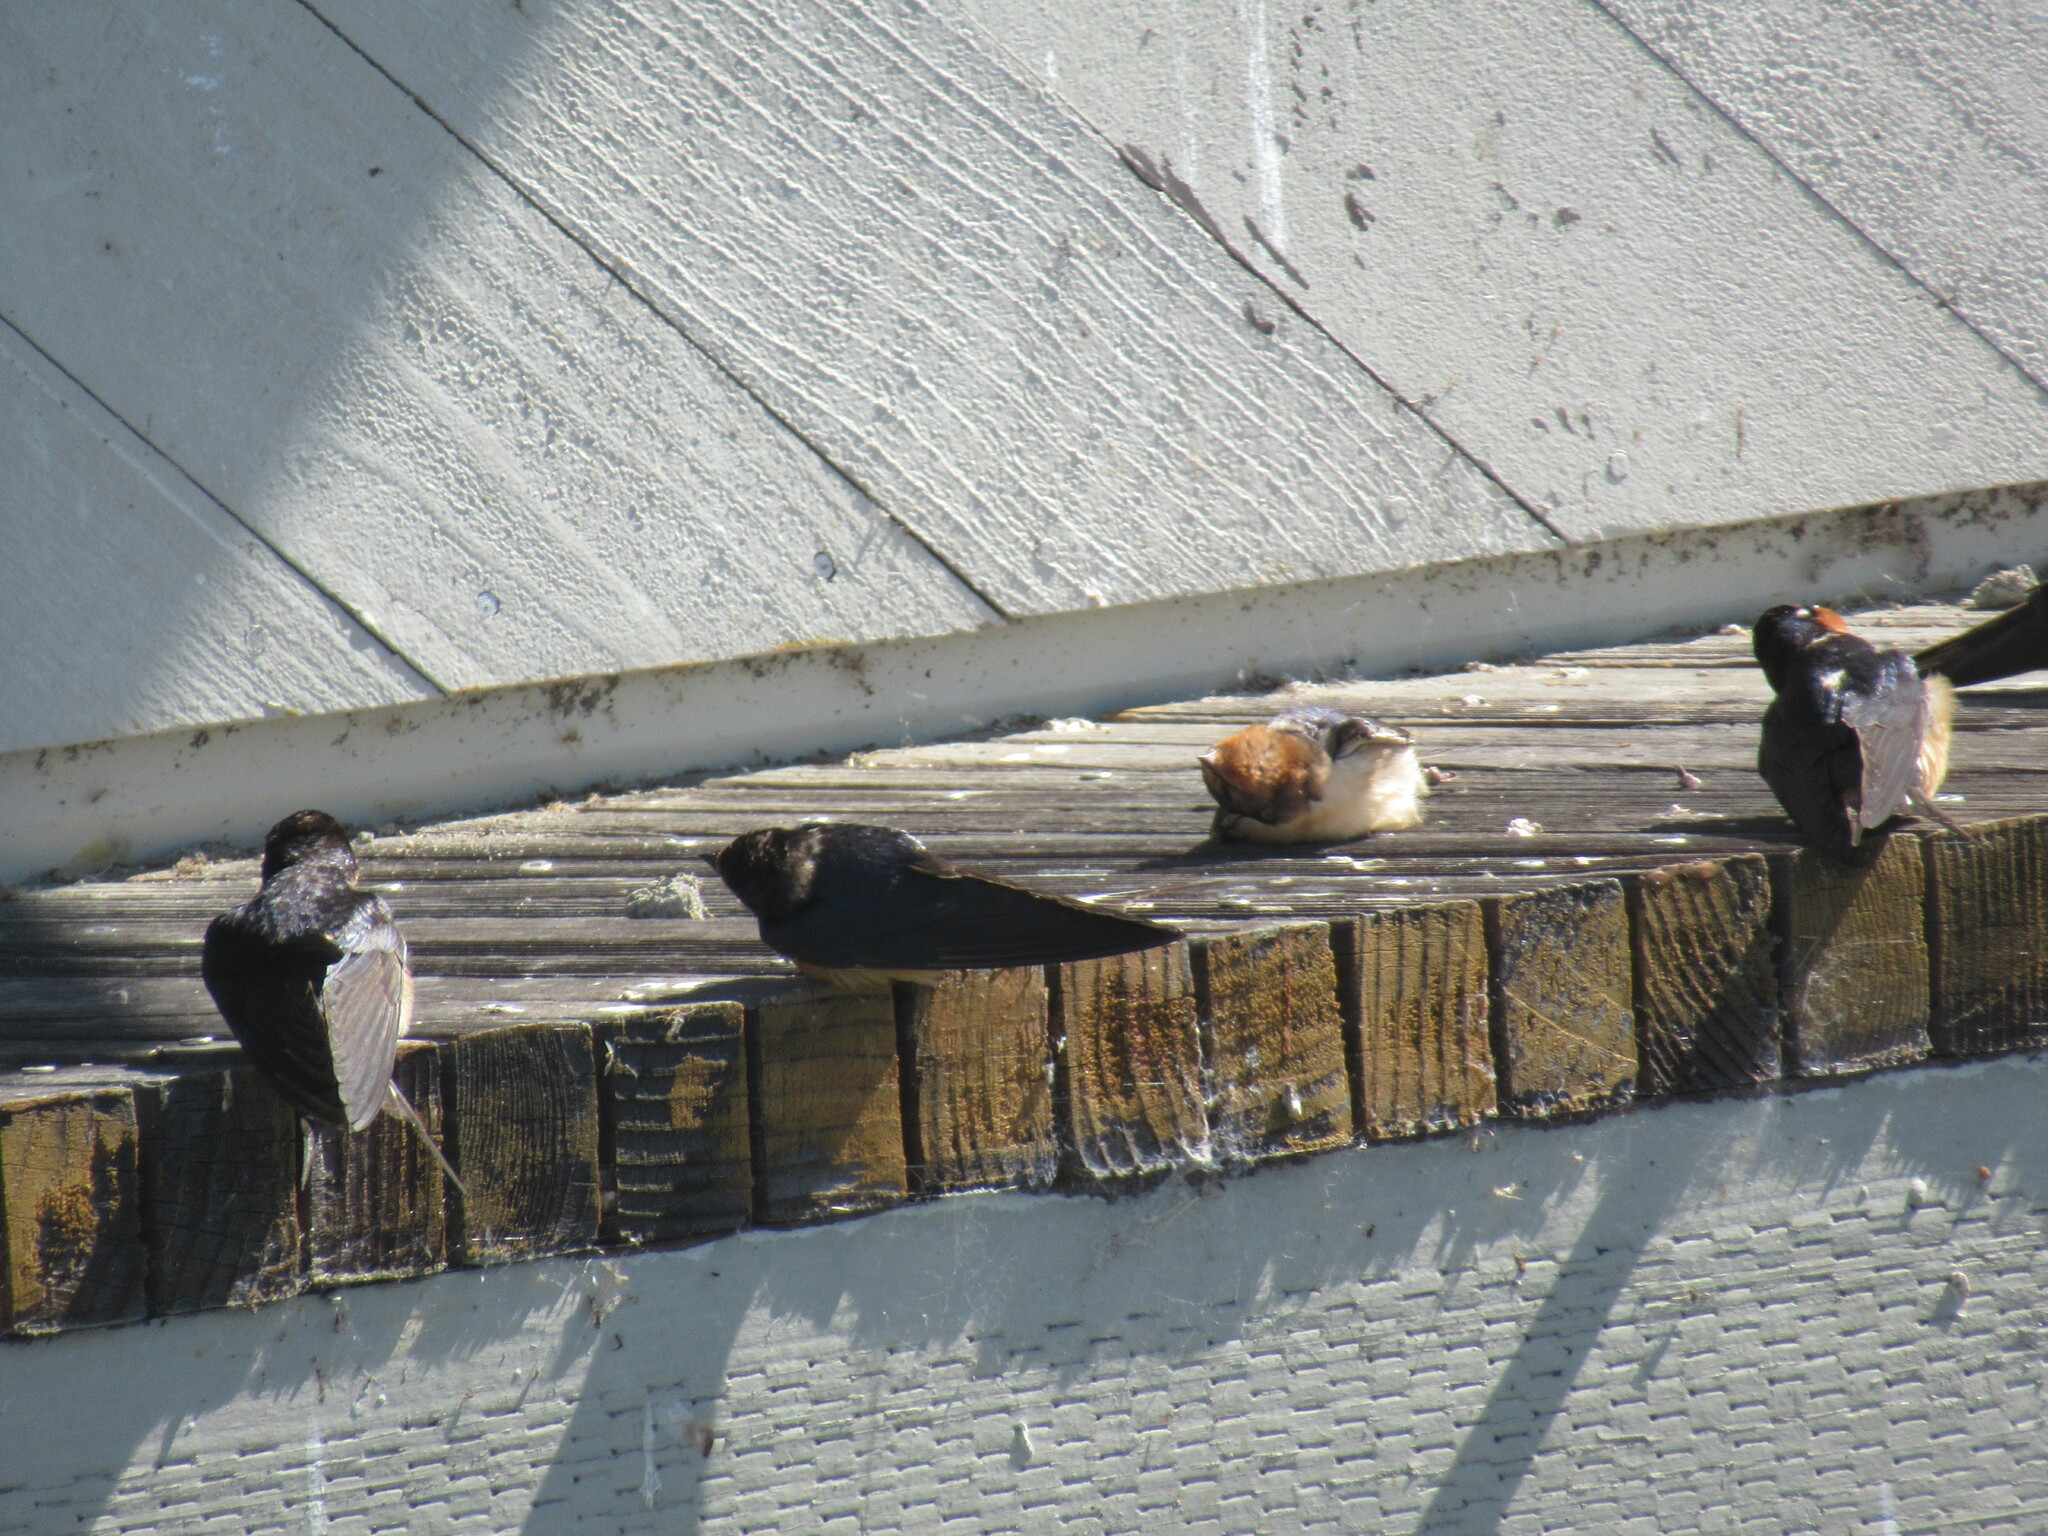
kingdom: Animalia
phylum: Chordata
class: Aves
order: Passeriformes
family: Hirundinidae
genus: Hirundo
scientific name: Hirundo rustica
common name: Barn swallow
